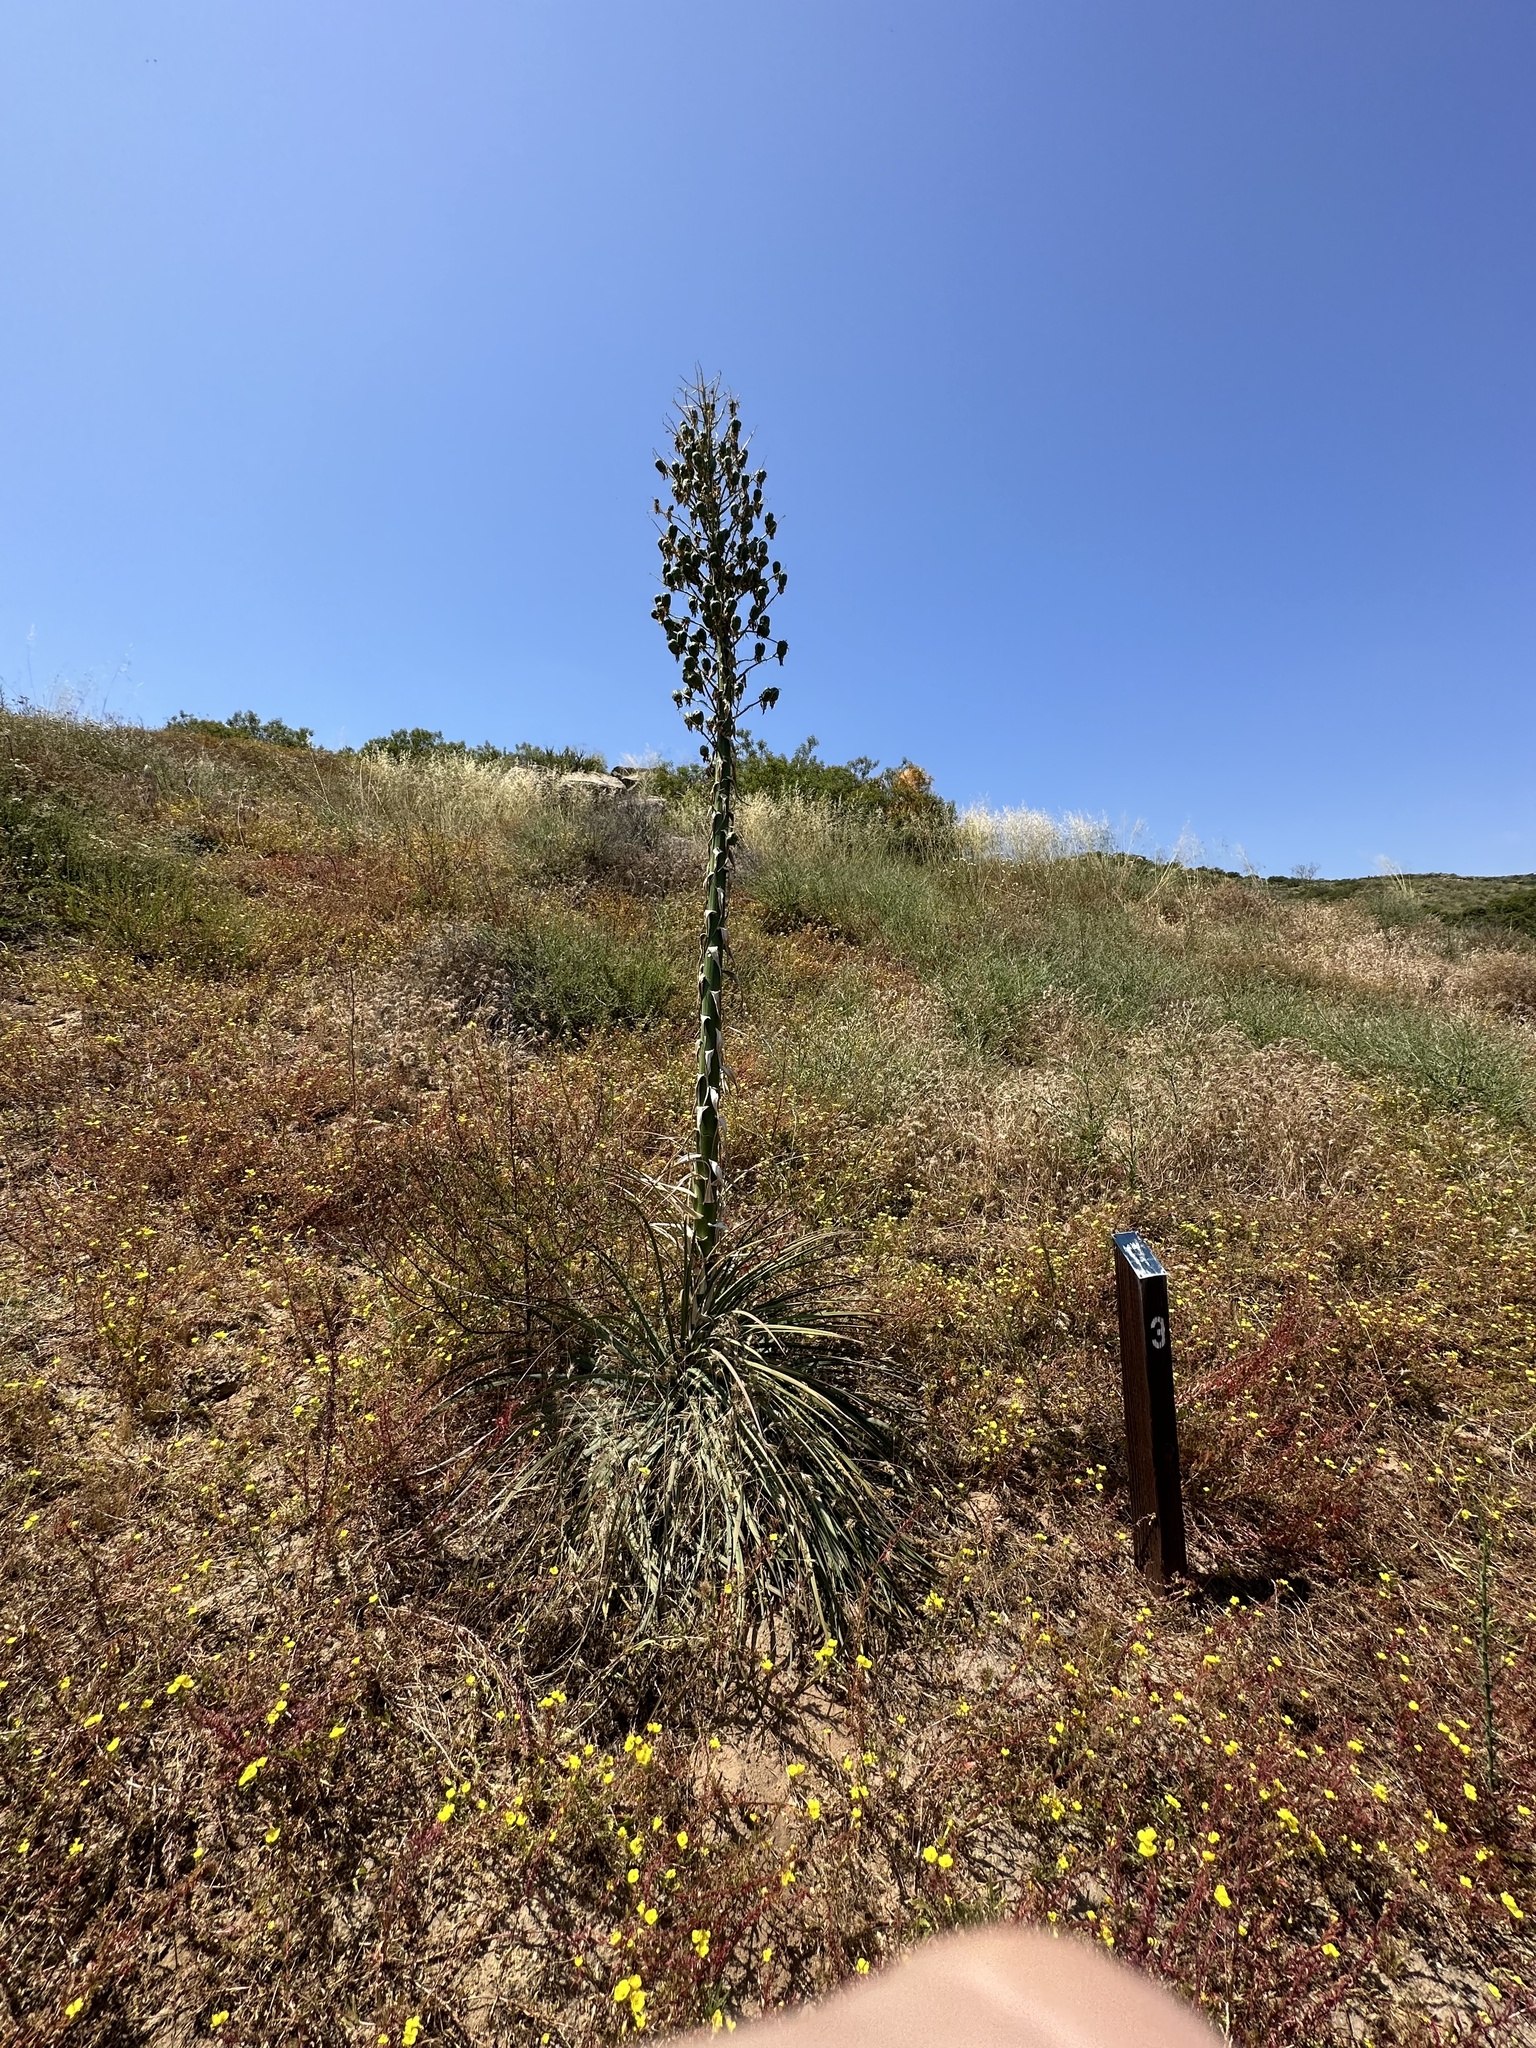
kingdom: Plantae
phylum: Tracheophyta
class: Liliopsida
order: Asparagales
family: Asparagaceae
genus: Hesperoyucca
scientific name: Hesperoyucca whipplei
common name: Our lord's-candle
